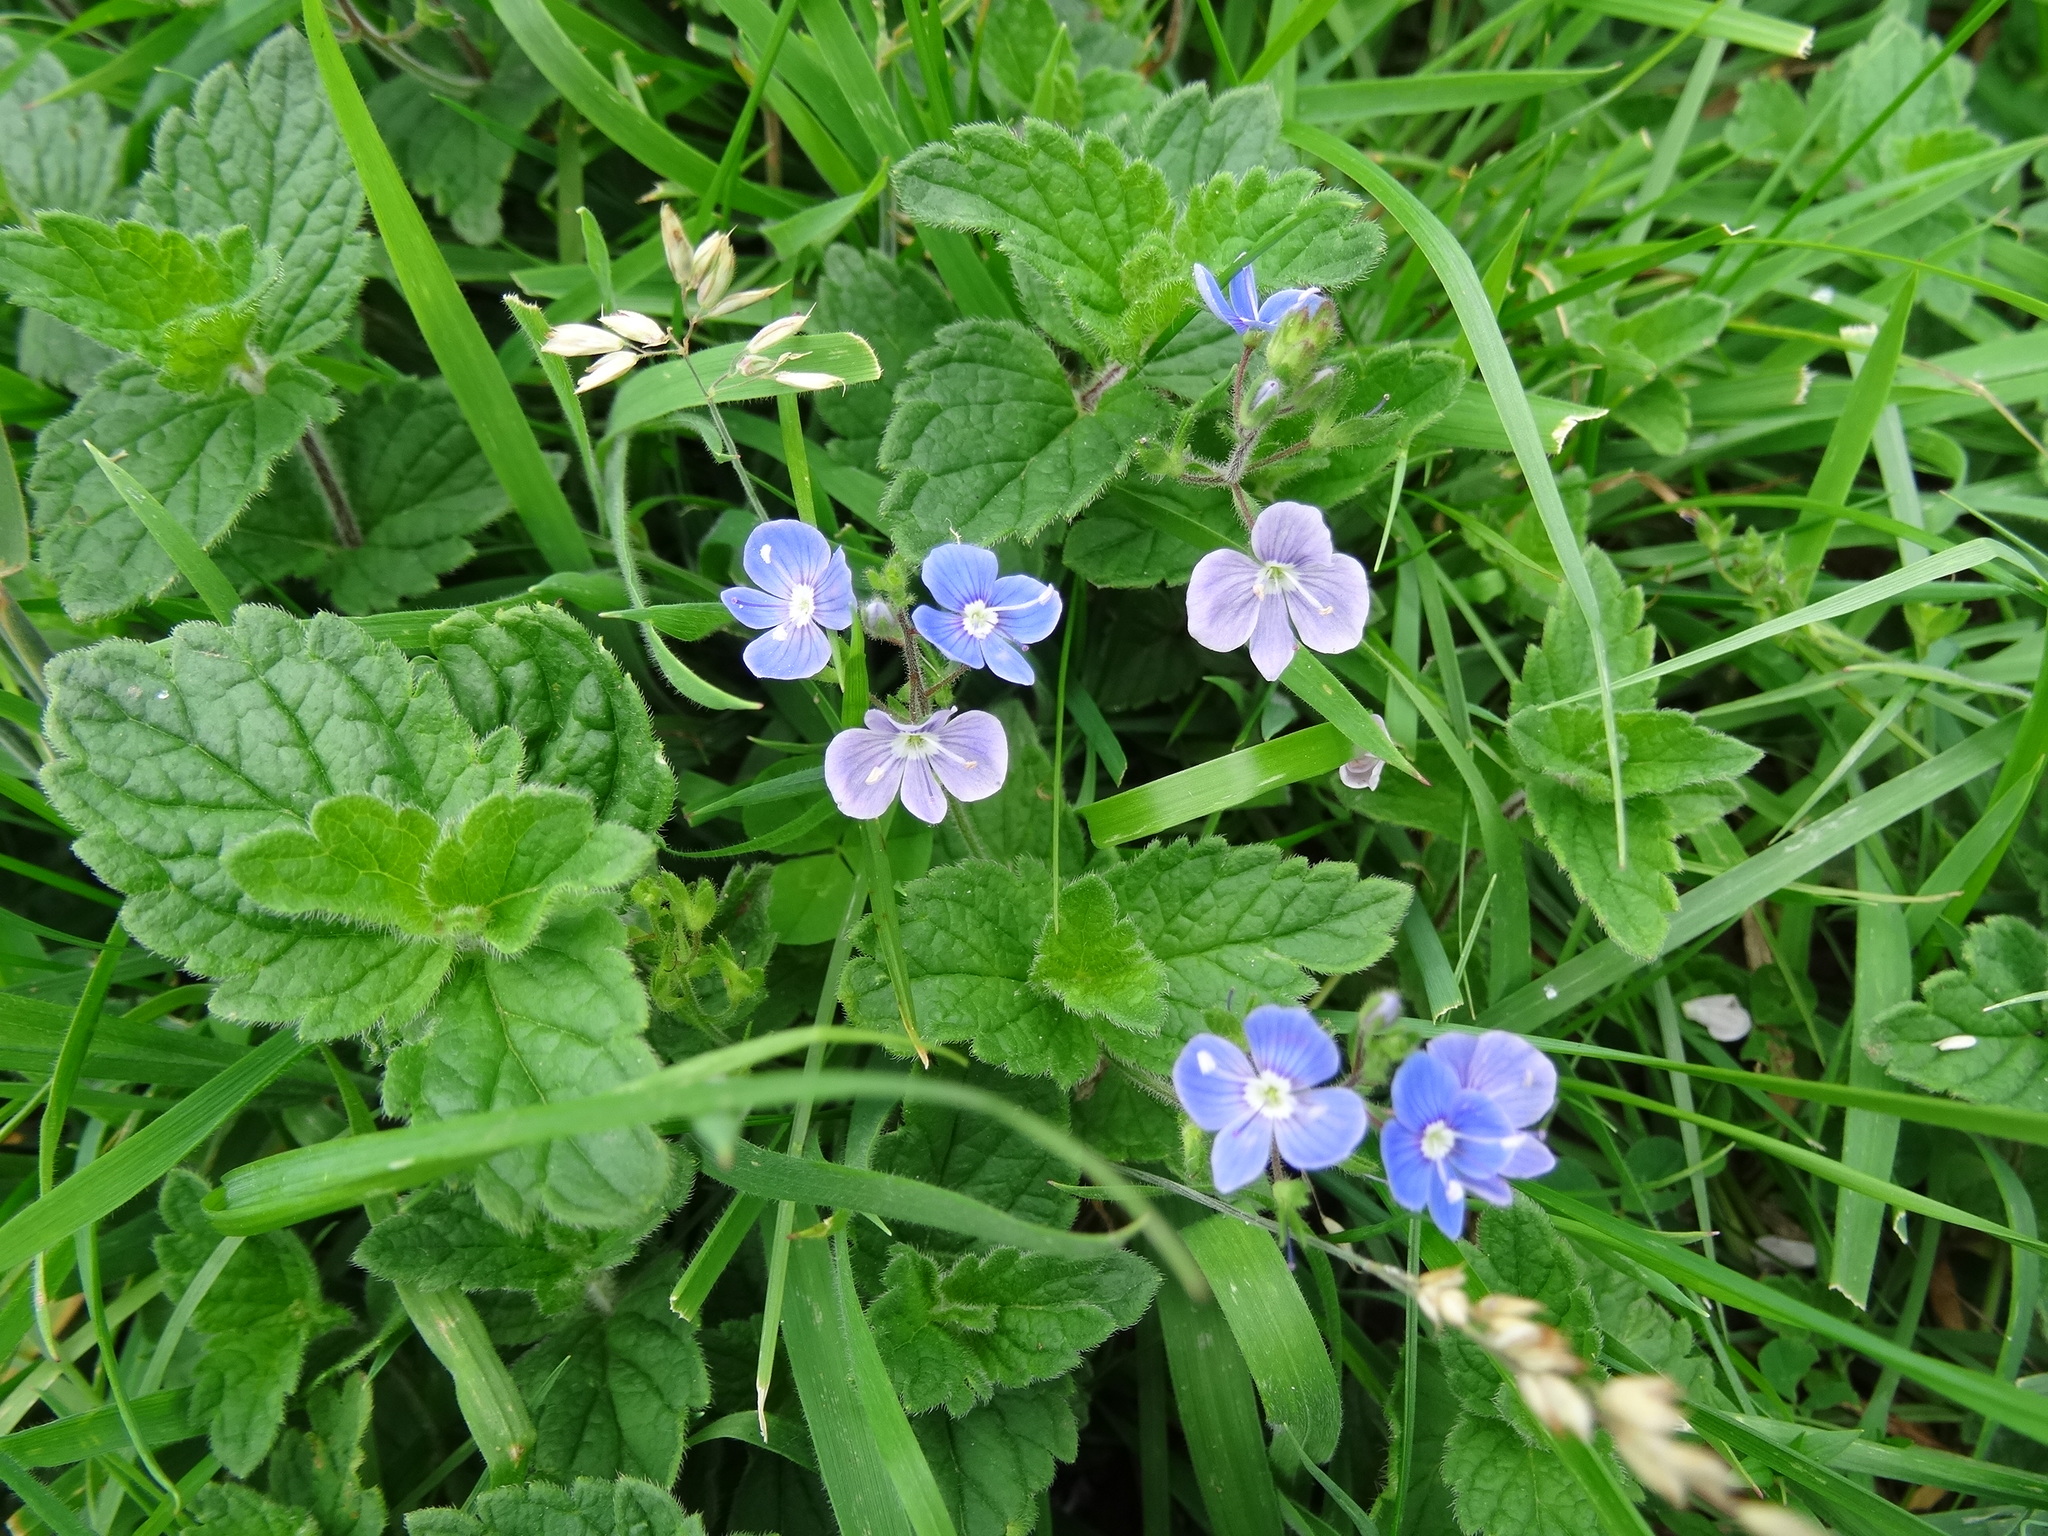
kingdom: Plantae
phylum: Tracheophyta
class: Magnoliopsida
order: Lamiales
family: Plantaginaceae
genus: Veronica
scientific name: Veronica chamaedrys
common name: Germander speedwell
